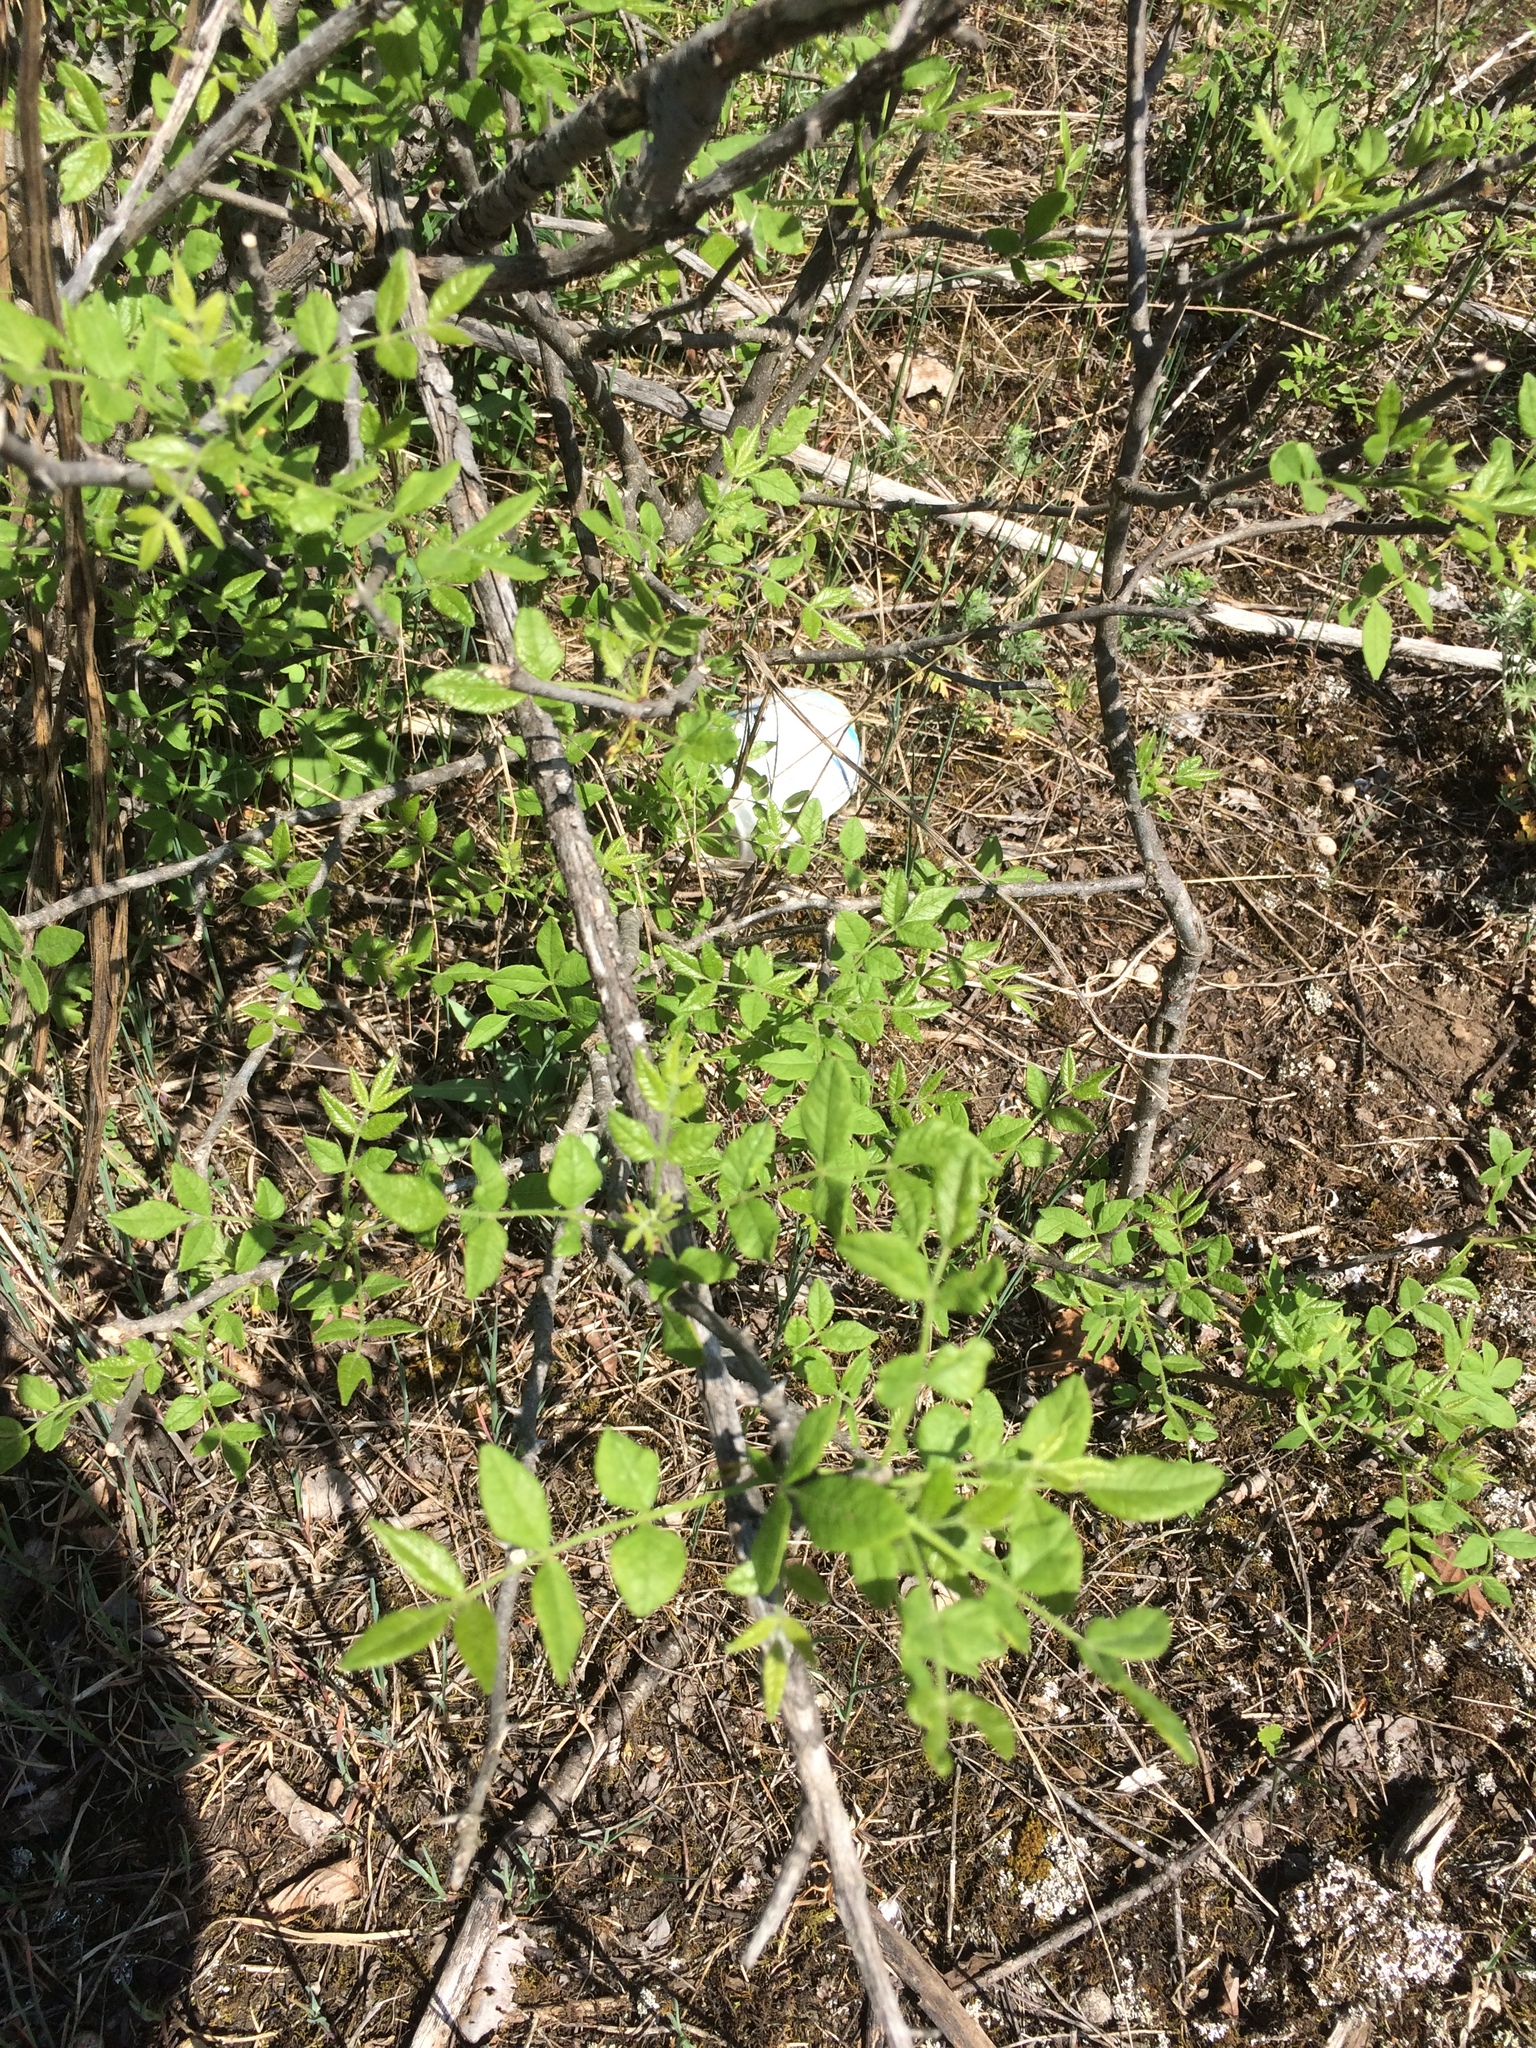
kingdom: Plantae
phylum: Tracheophyta
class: Magnoliopsida
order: Sapindales
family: Rutaceae
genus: Zanthoxylum
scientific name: Zanthoxylum americanum
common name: Northern prickly-ash
